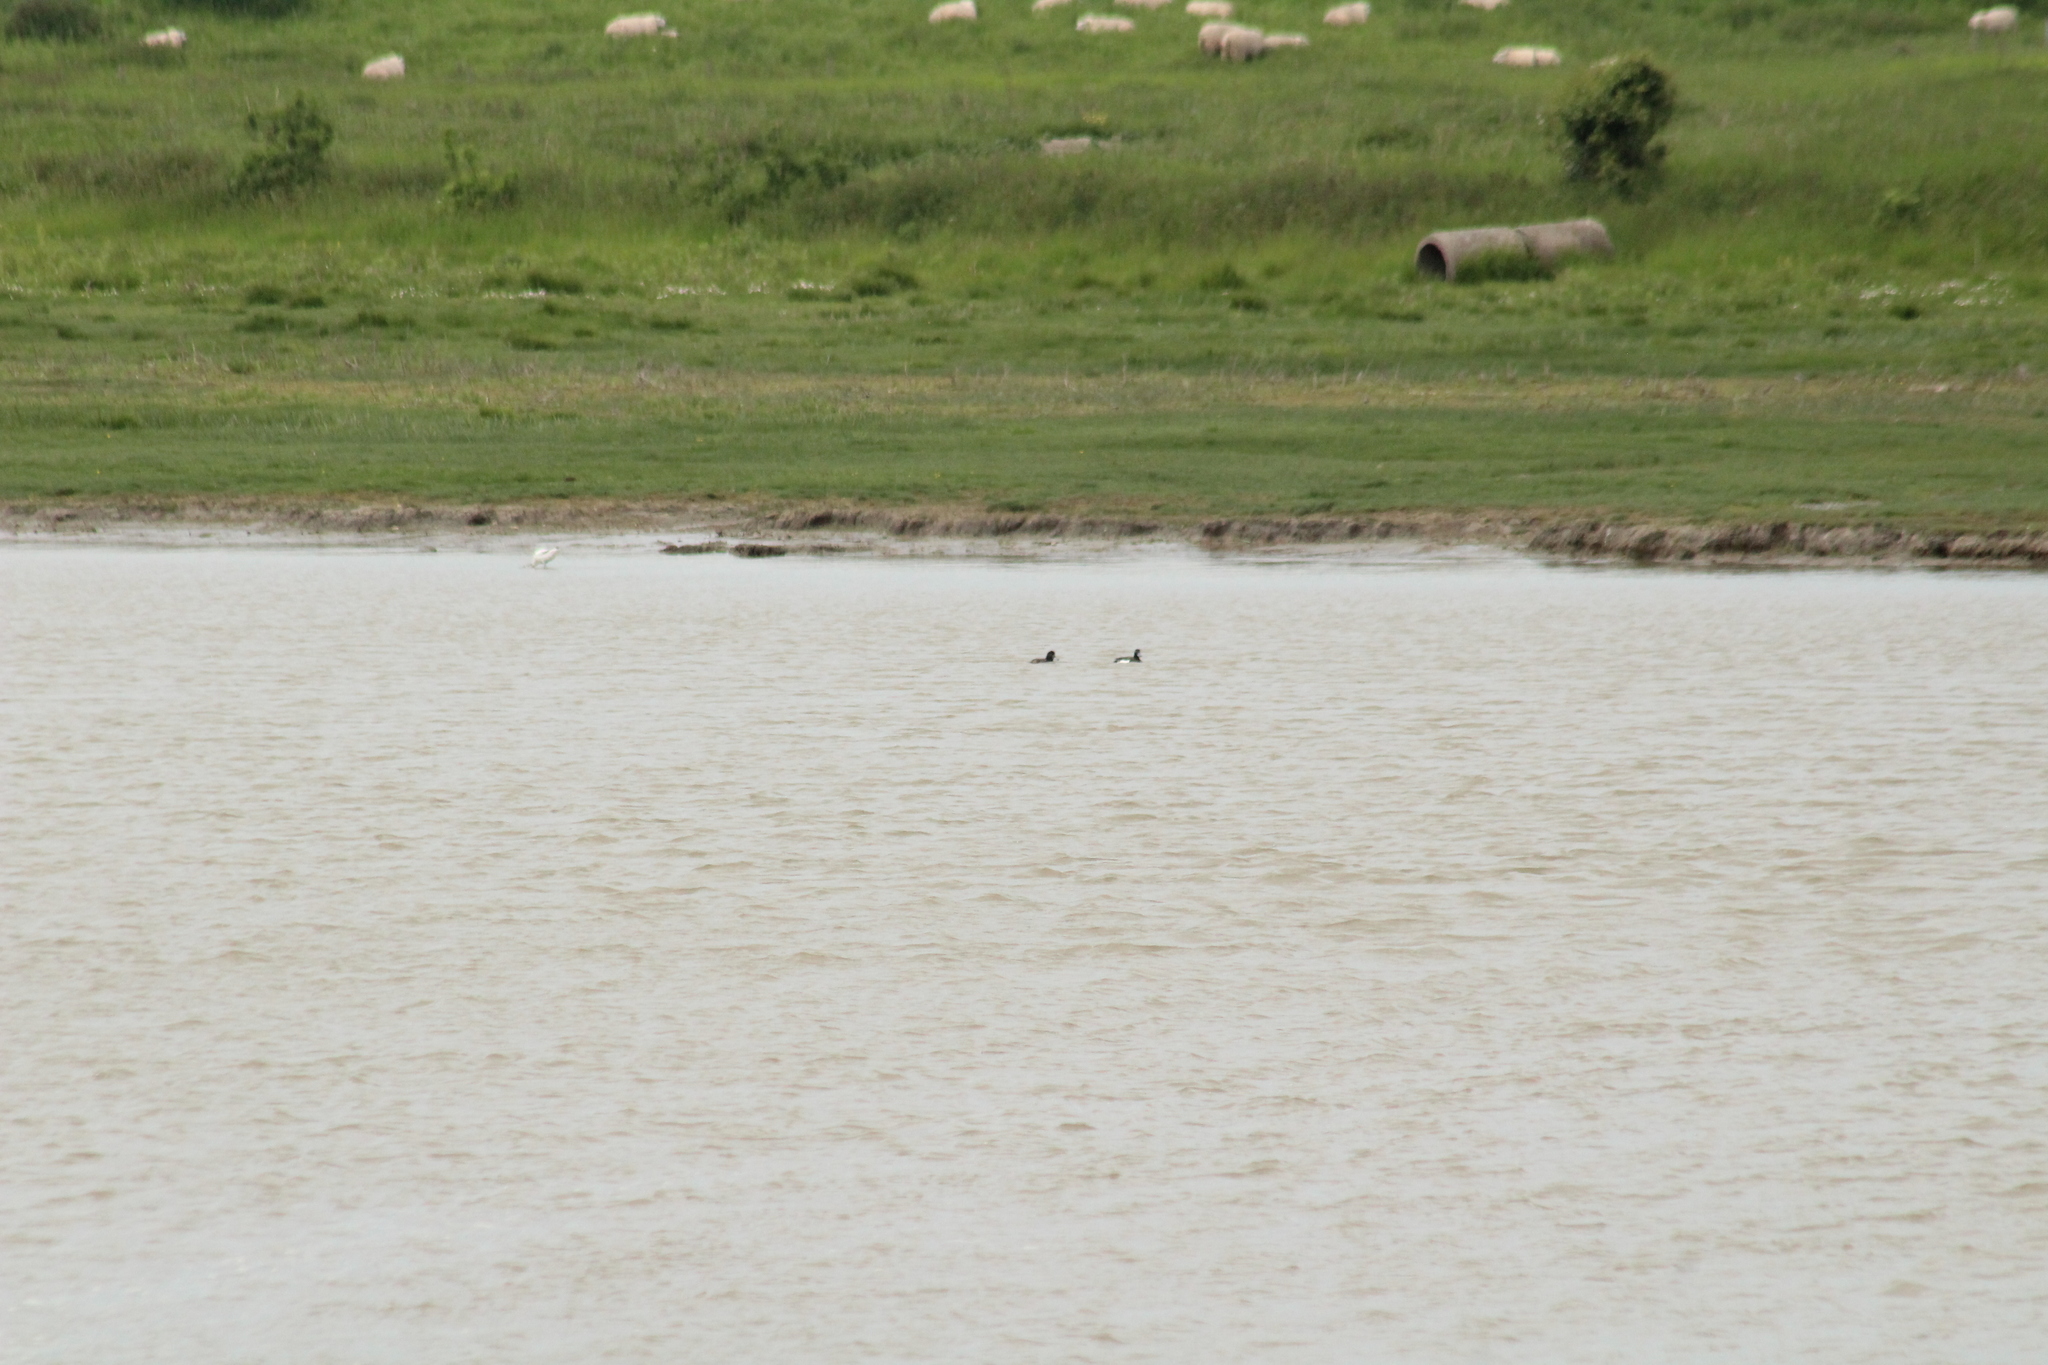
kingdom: Animalia
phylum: Chordata
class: Aves
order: Anseriformes
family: Anatidae
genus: Aythya
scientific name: Aythya fuligula
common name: Tufted duck
